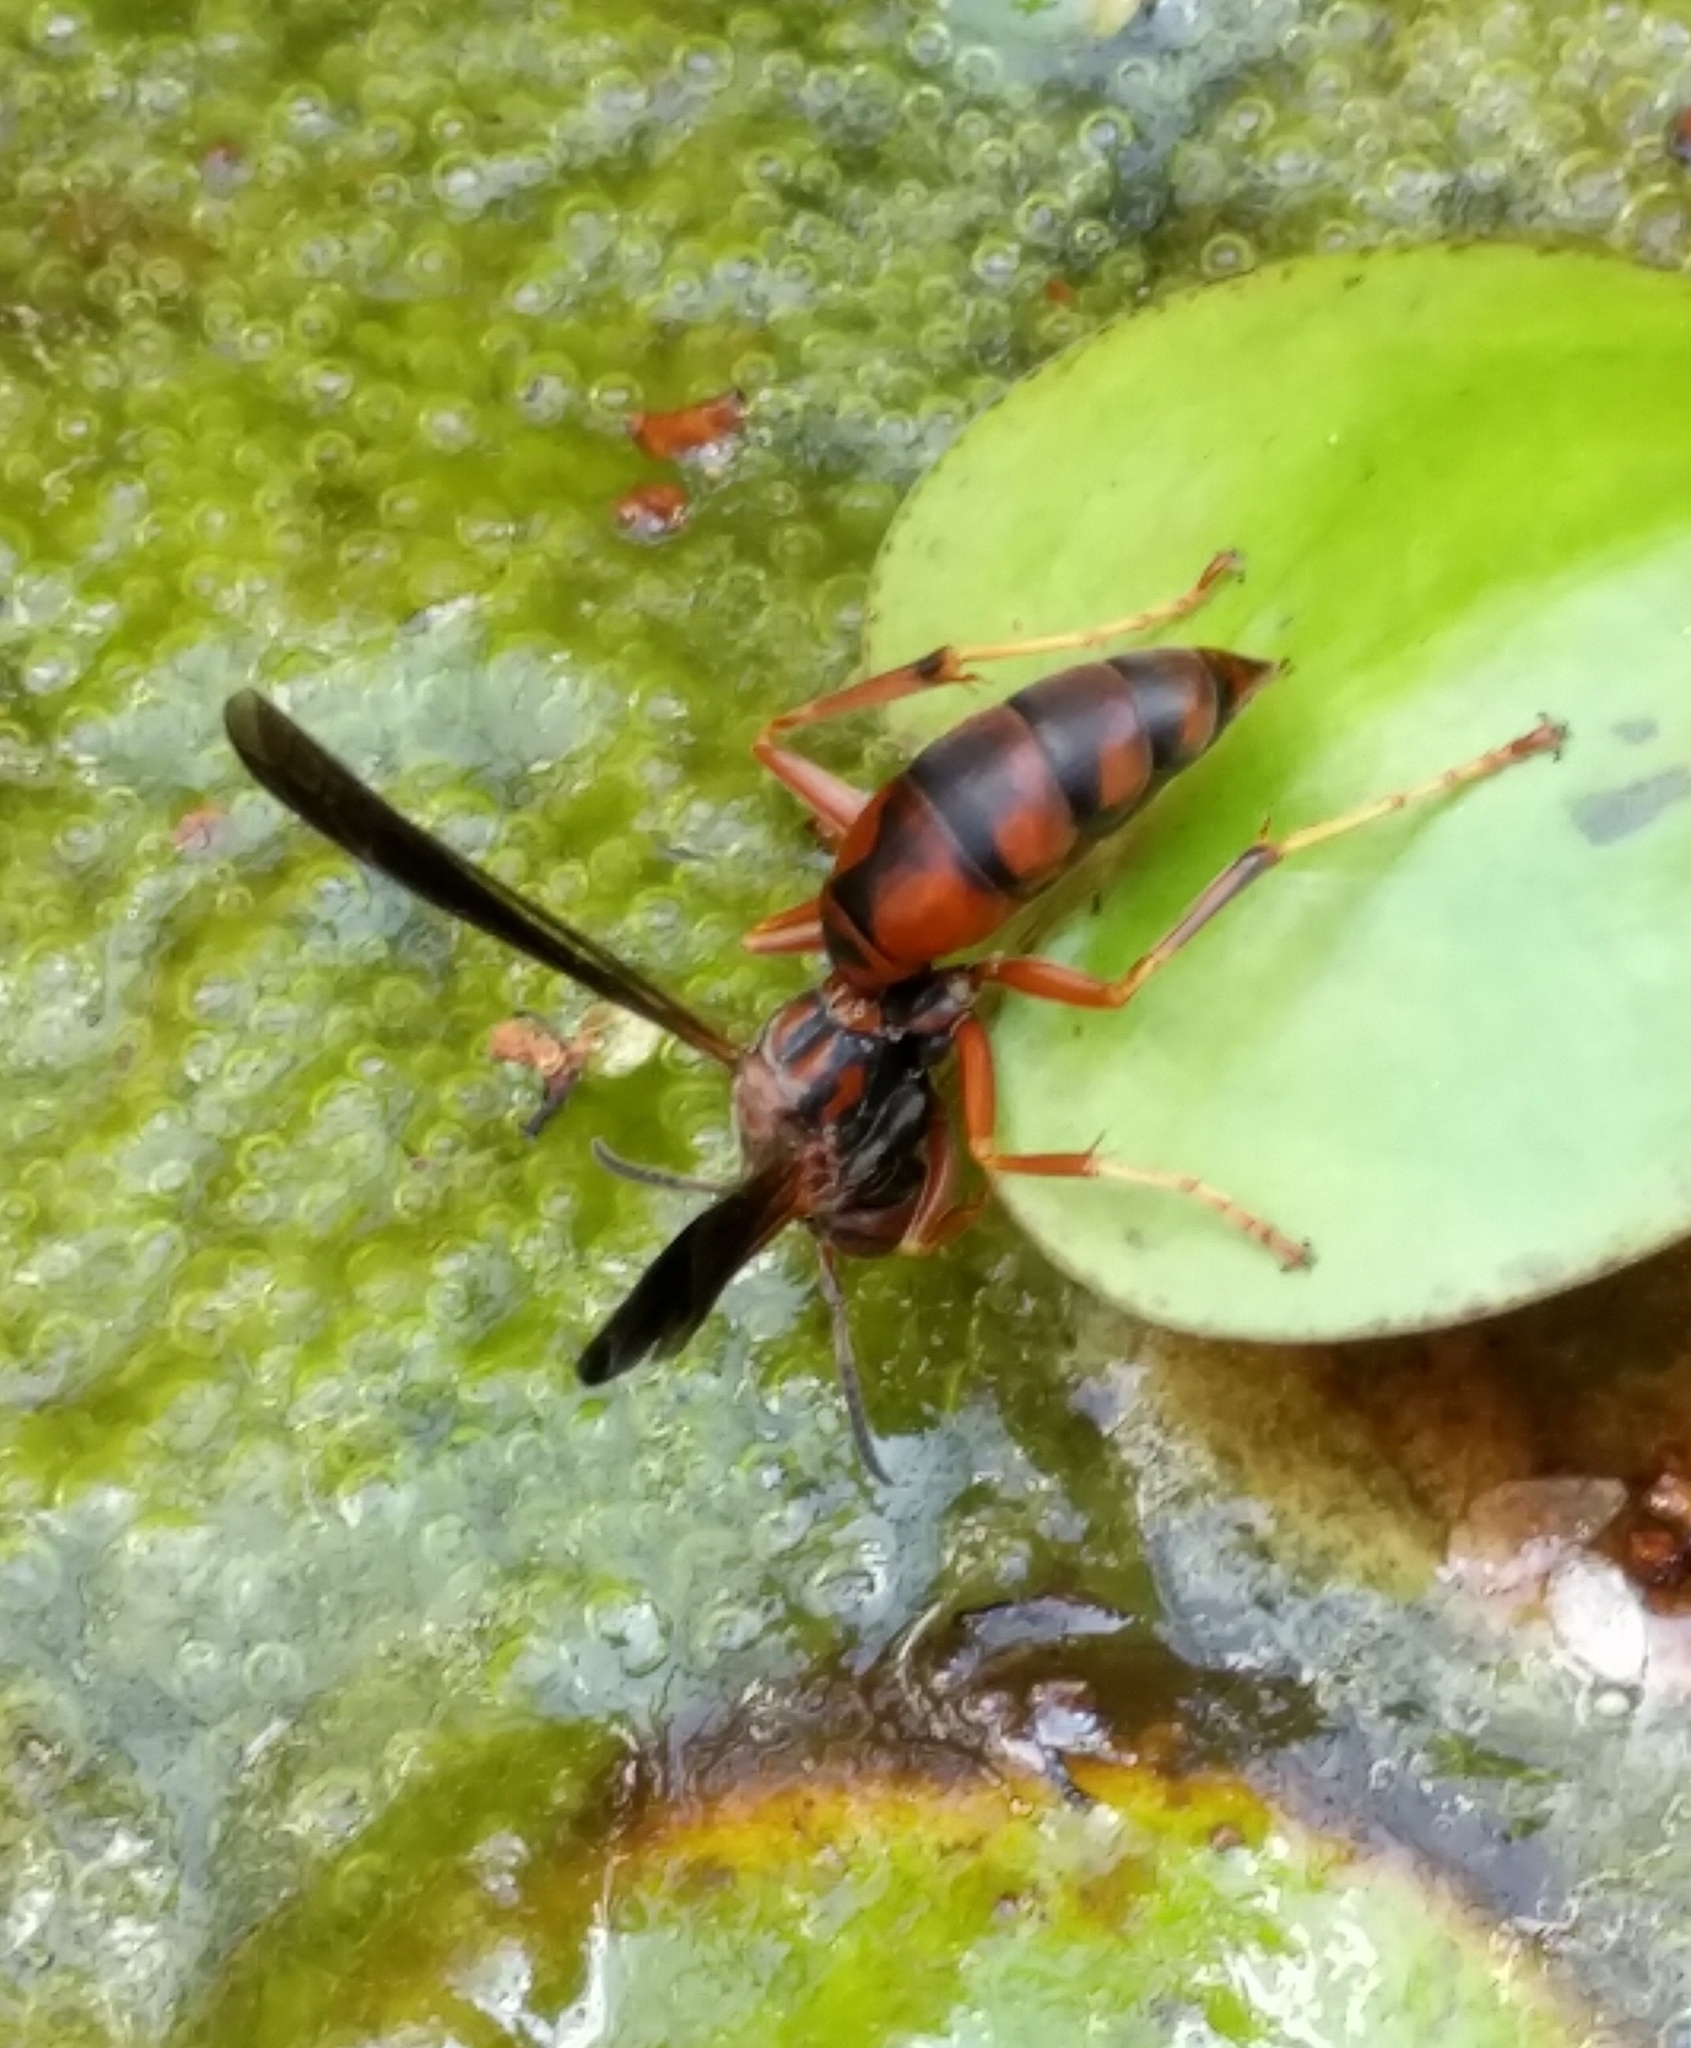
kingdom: Animalia
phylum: Arthropoda
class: Insecta
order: Hymenoptera
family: Eumenidae
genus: Polistes
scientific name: Polistes fuscatus
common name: Dark paper wasp
